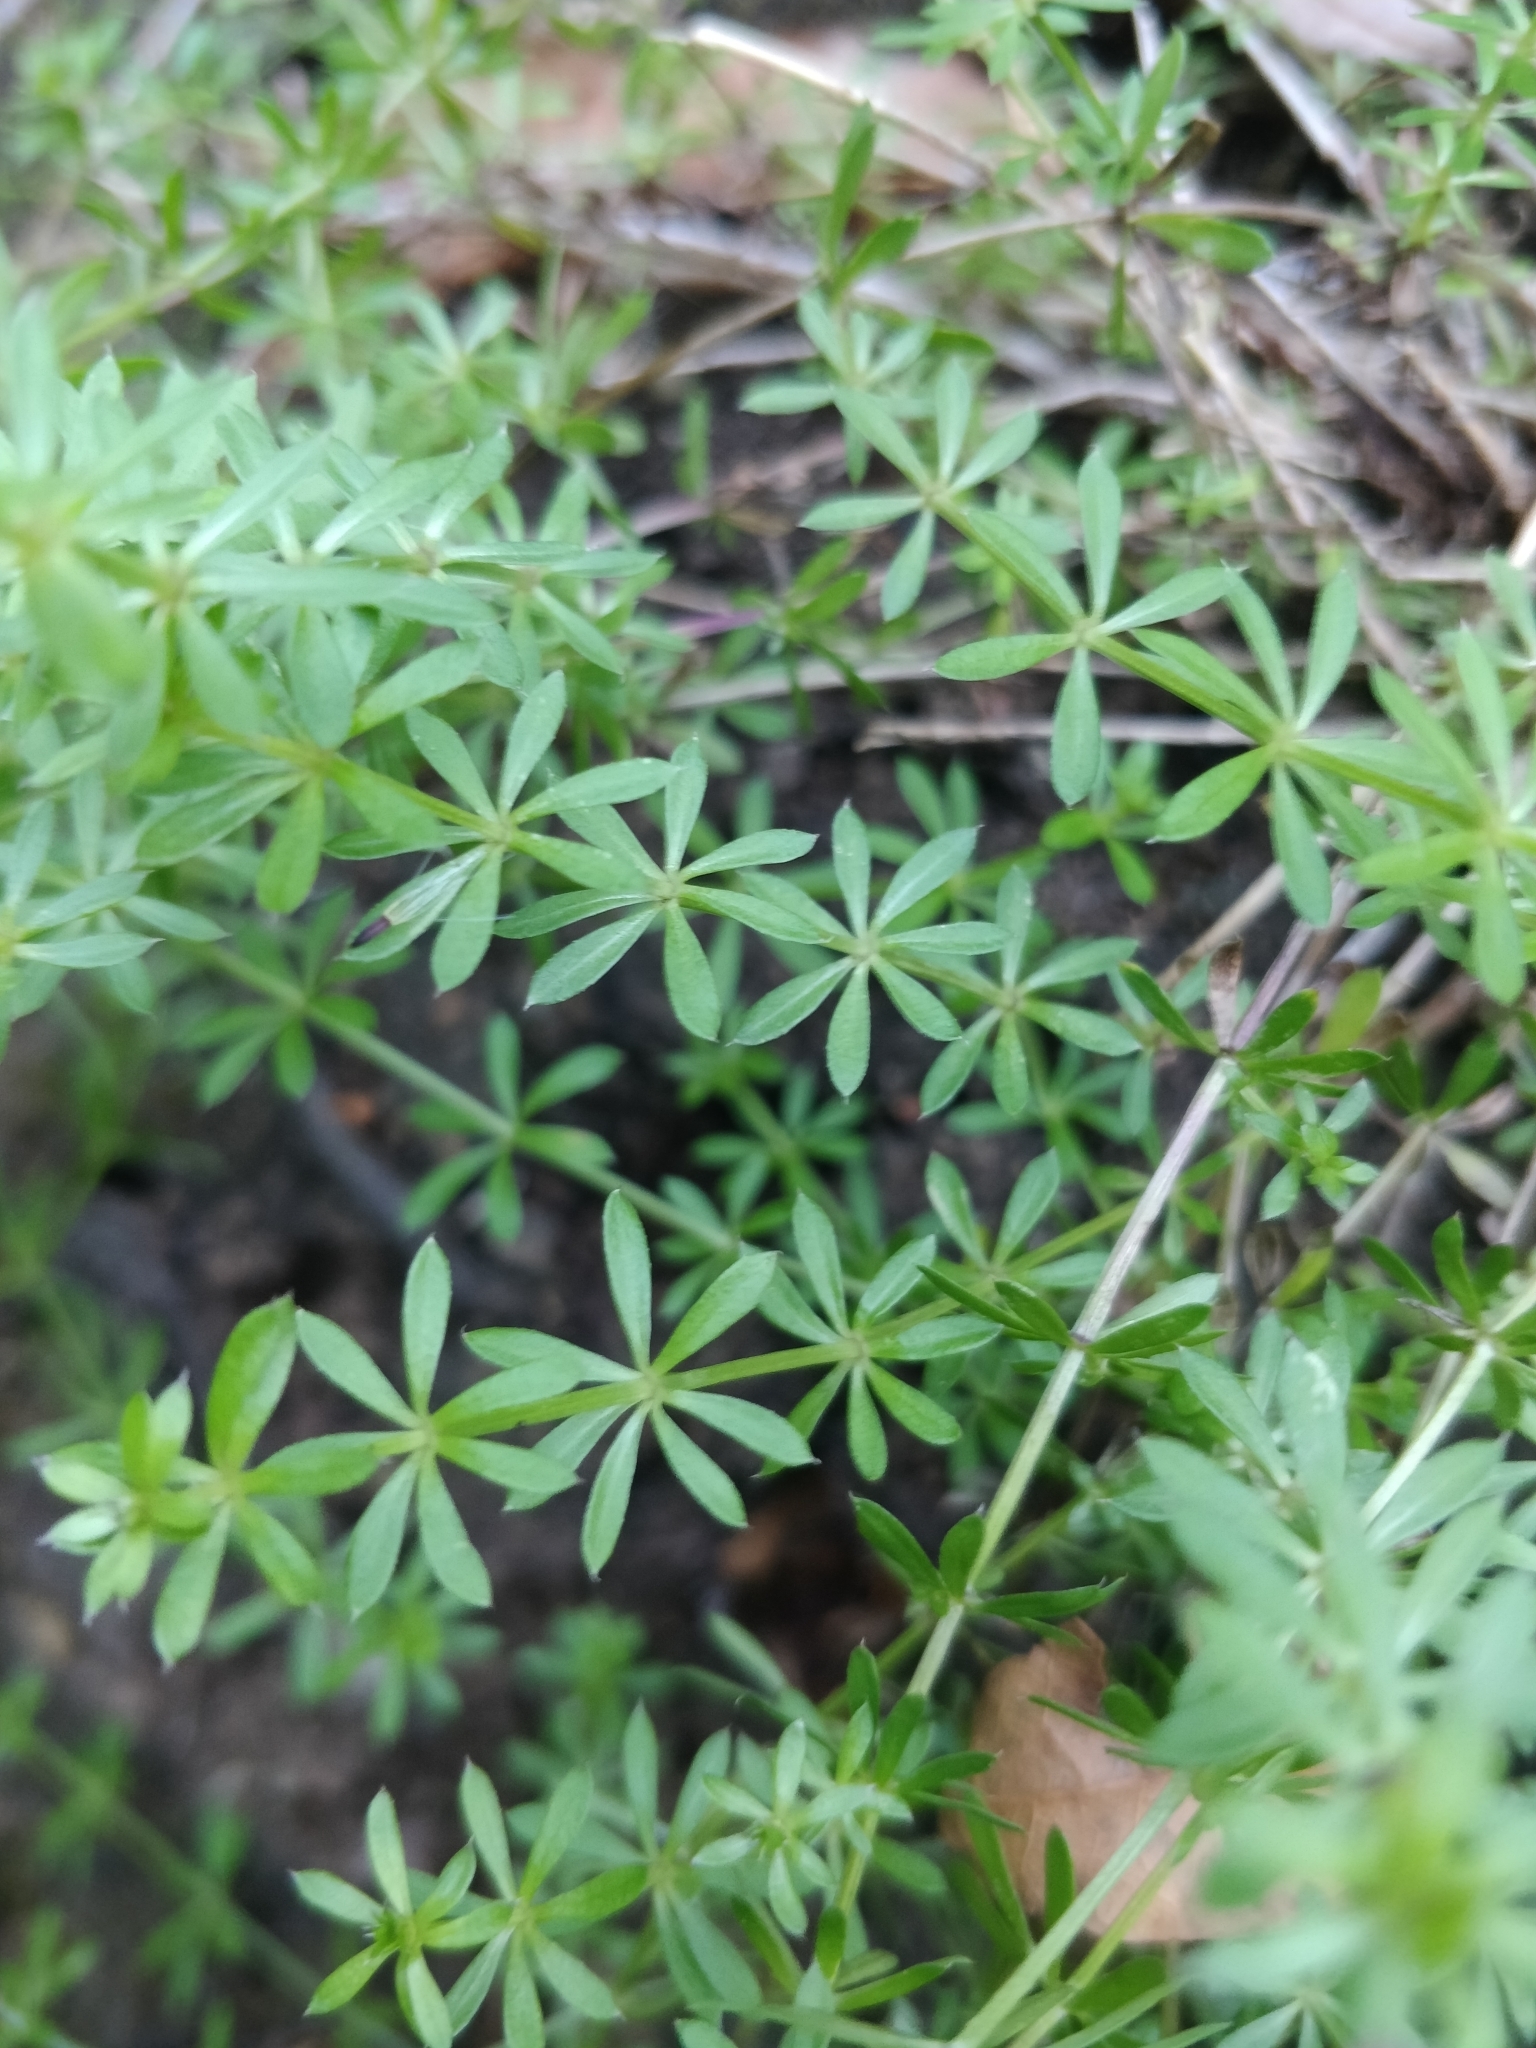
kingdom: Plantae
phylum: Tracheophyta
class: Magnoliopsida
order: Gentianales
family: Rubiaceae
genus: Galium
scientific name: Galium aparine
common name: Cleavers
